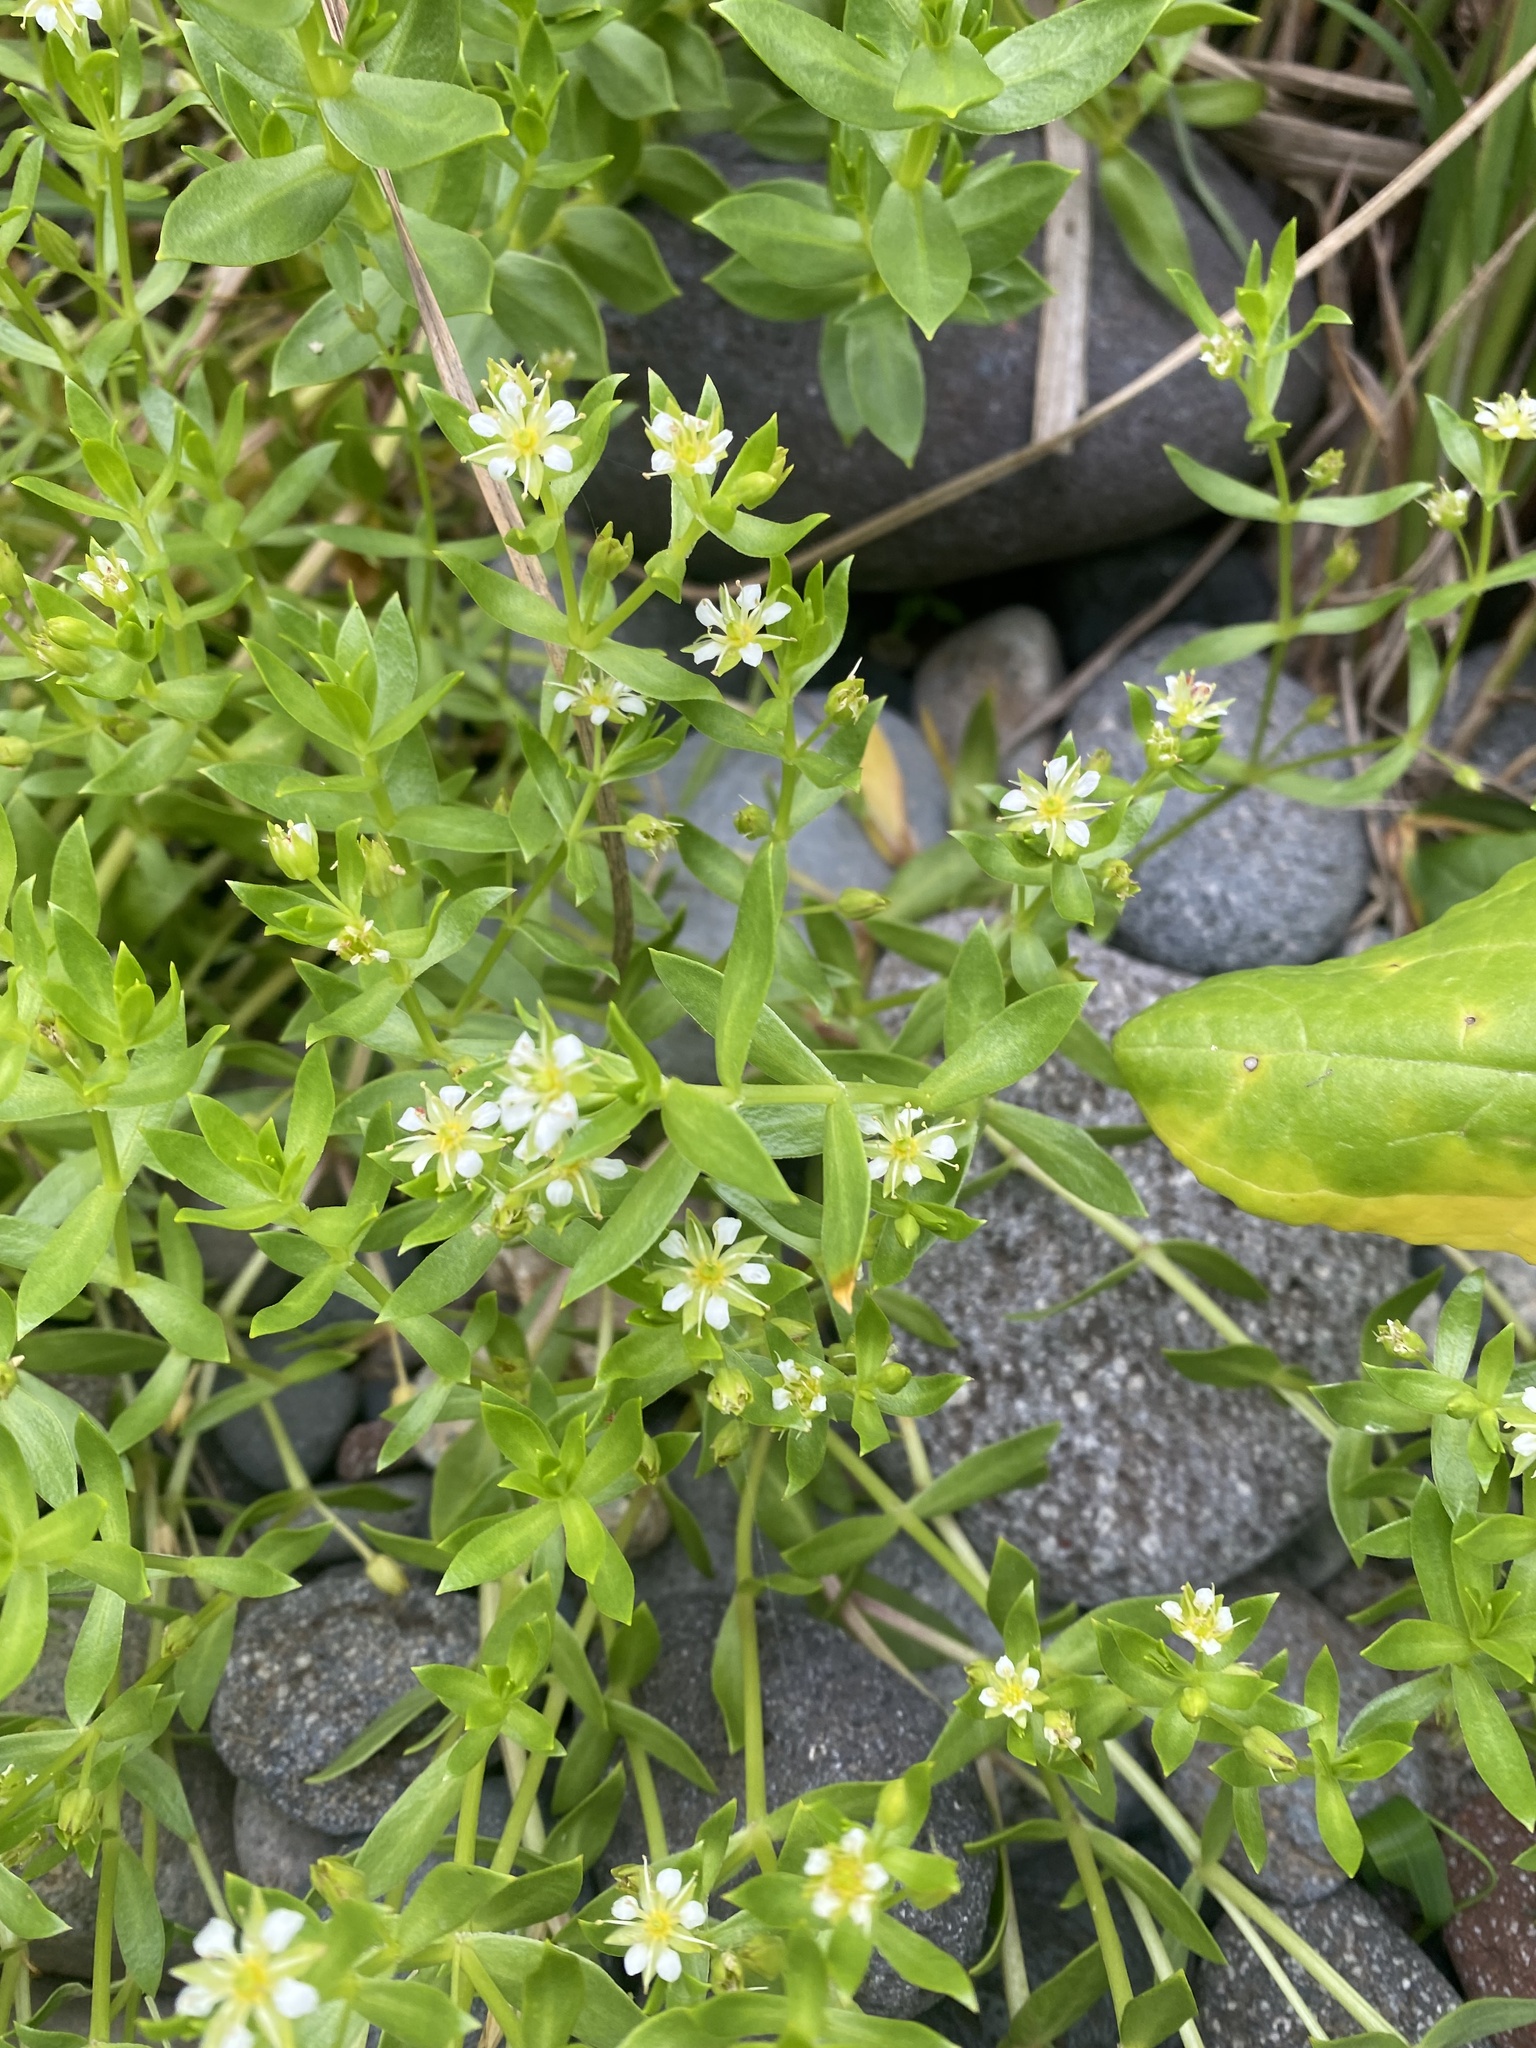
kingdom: Plantae
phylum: Tracheophyta
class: Magnoliopsida
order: Caryophyllales
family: Caryophyllaceae
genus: Honckenya
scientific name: Honckenya peploides
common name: Sea sandwort
